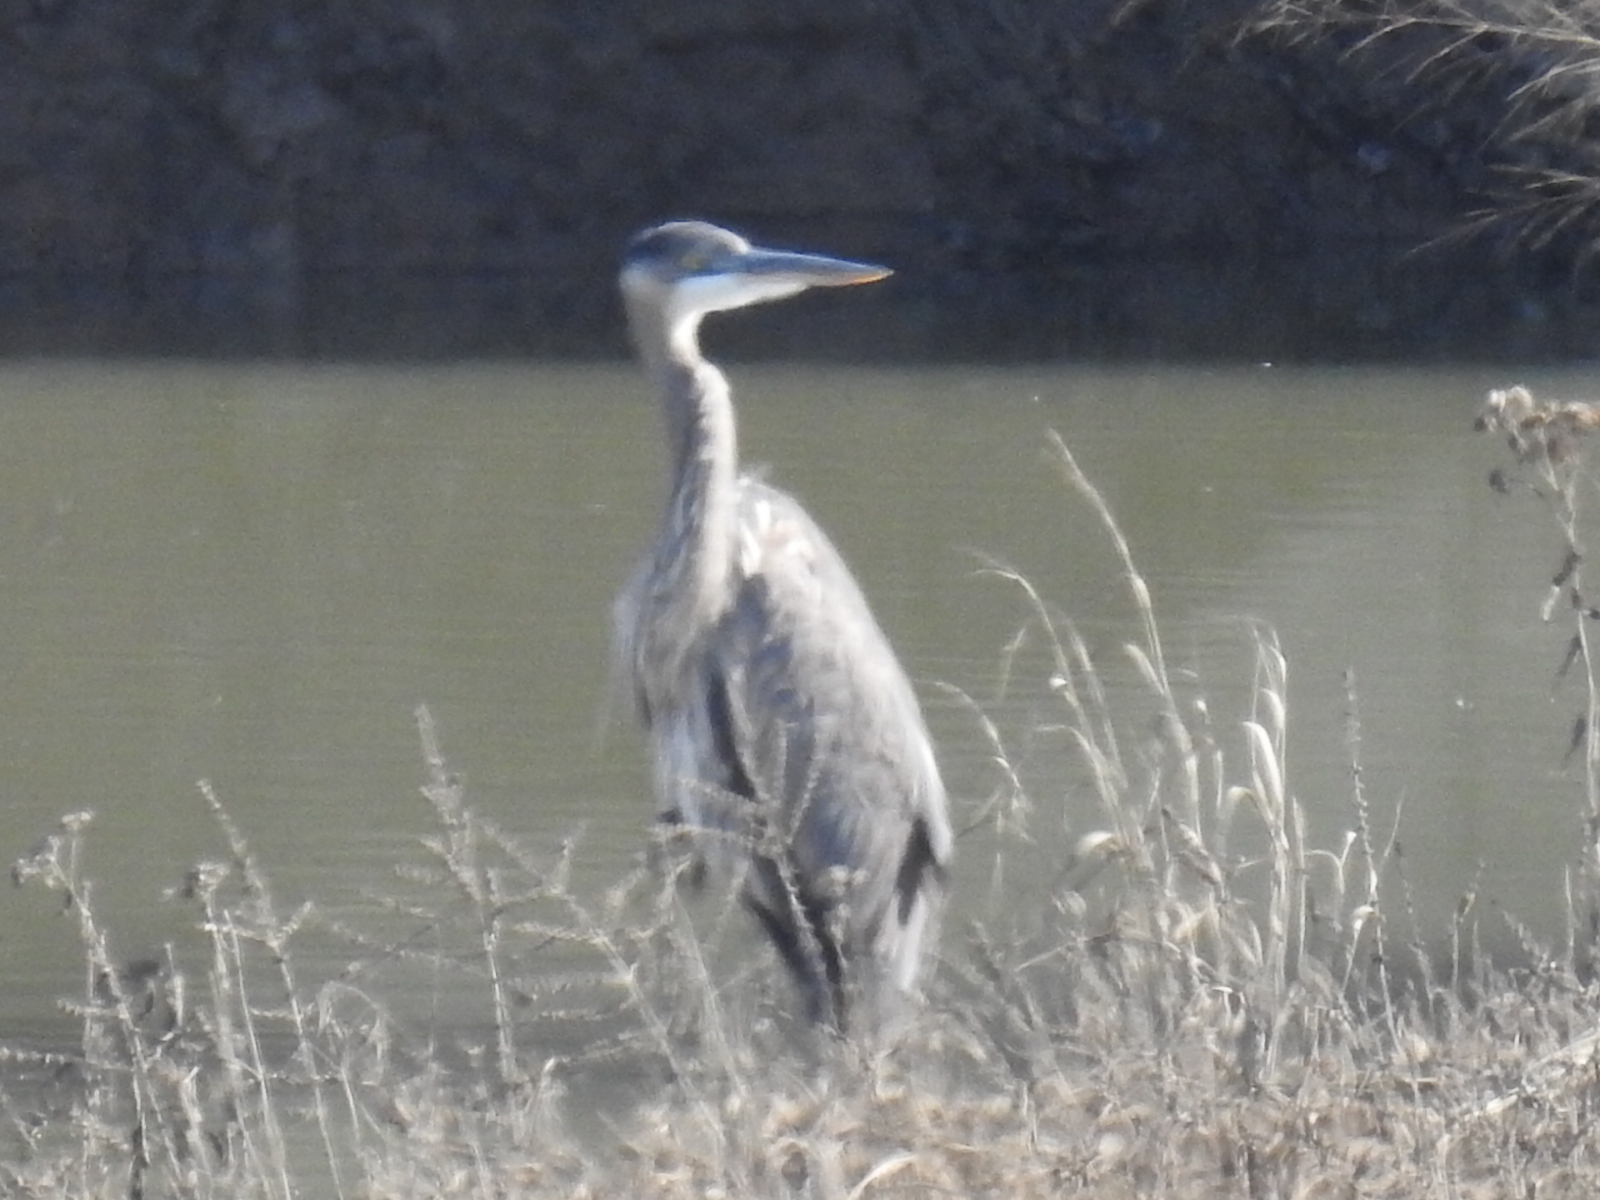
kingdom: Animalia
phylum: Chordata
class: Aves
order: Pelecaniformes
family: Ardeidae
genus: Ardea
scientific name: Ardea herodias
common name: Great blue heron
